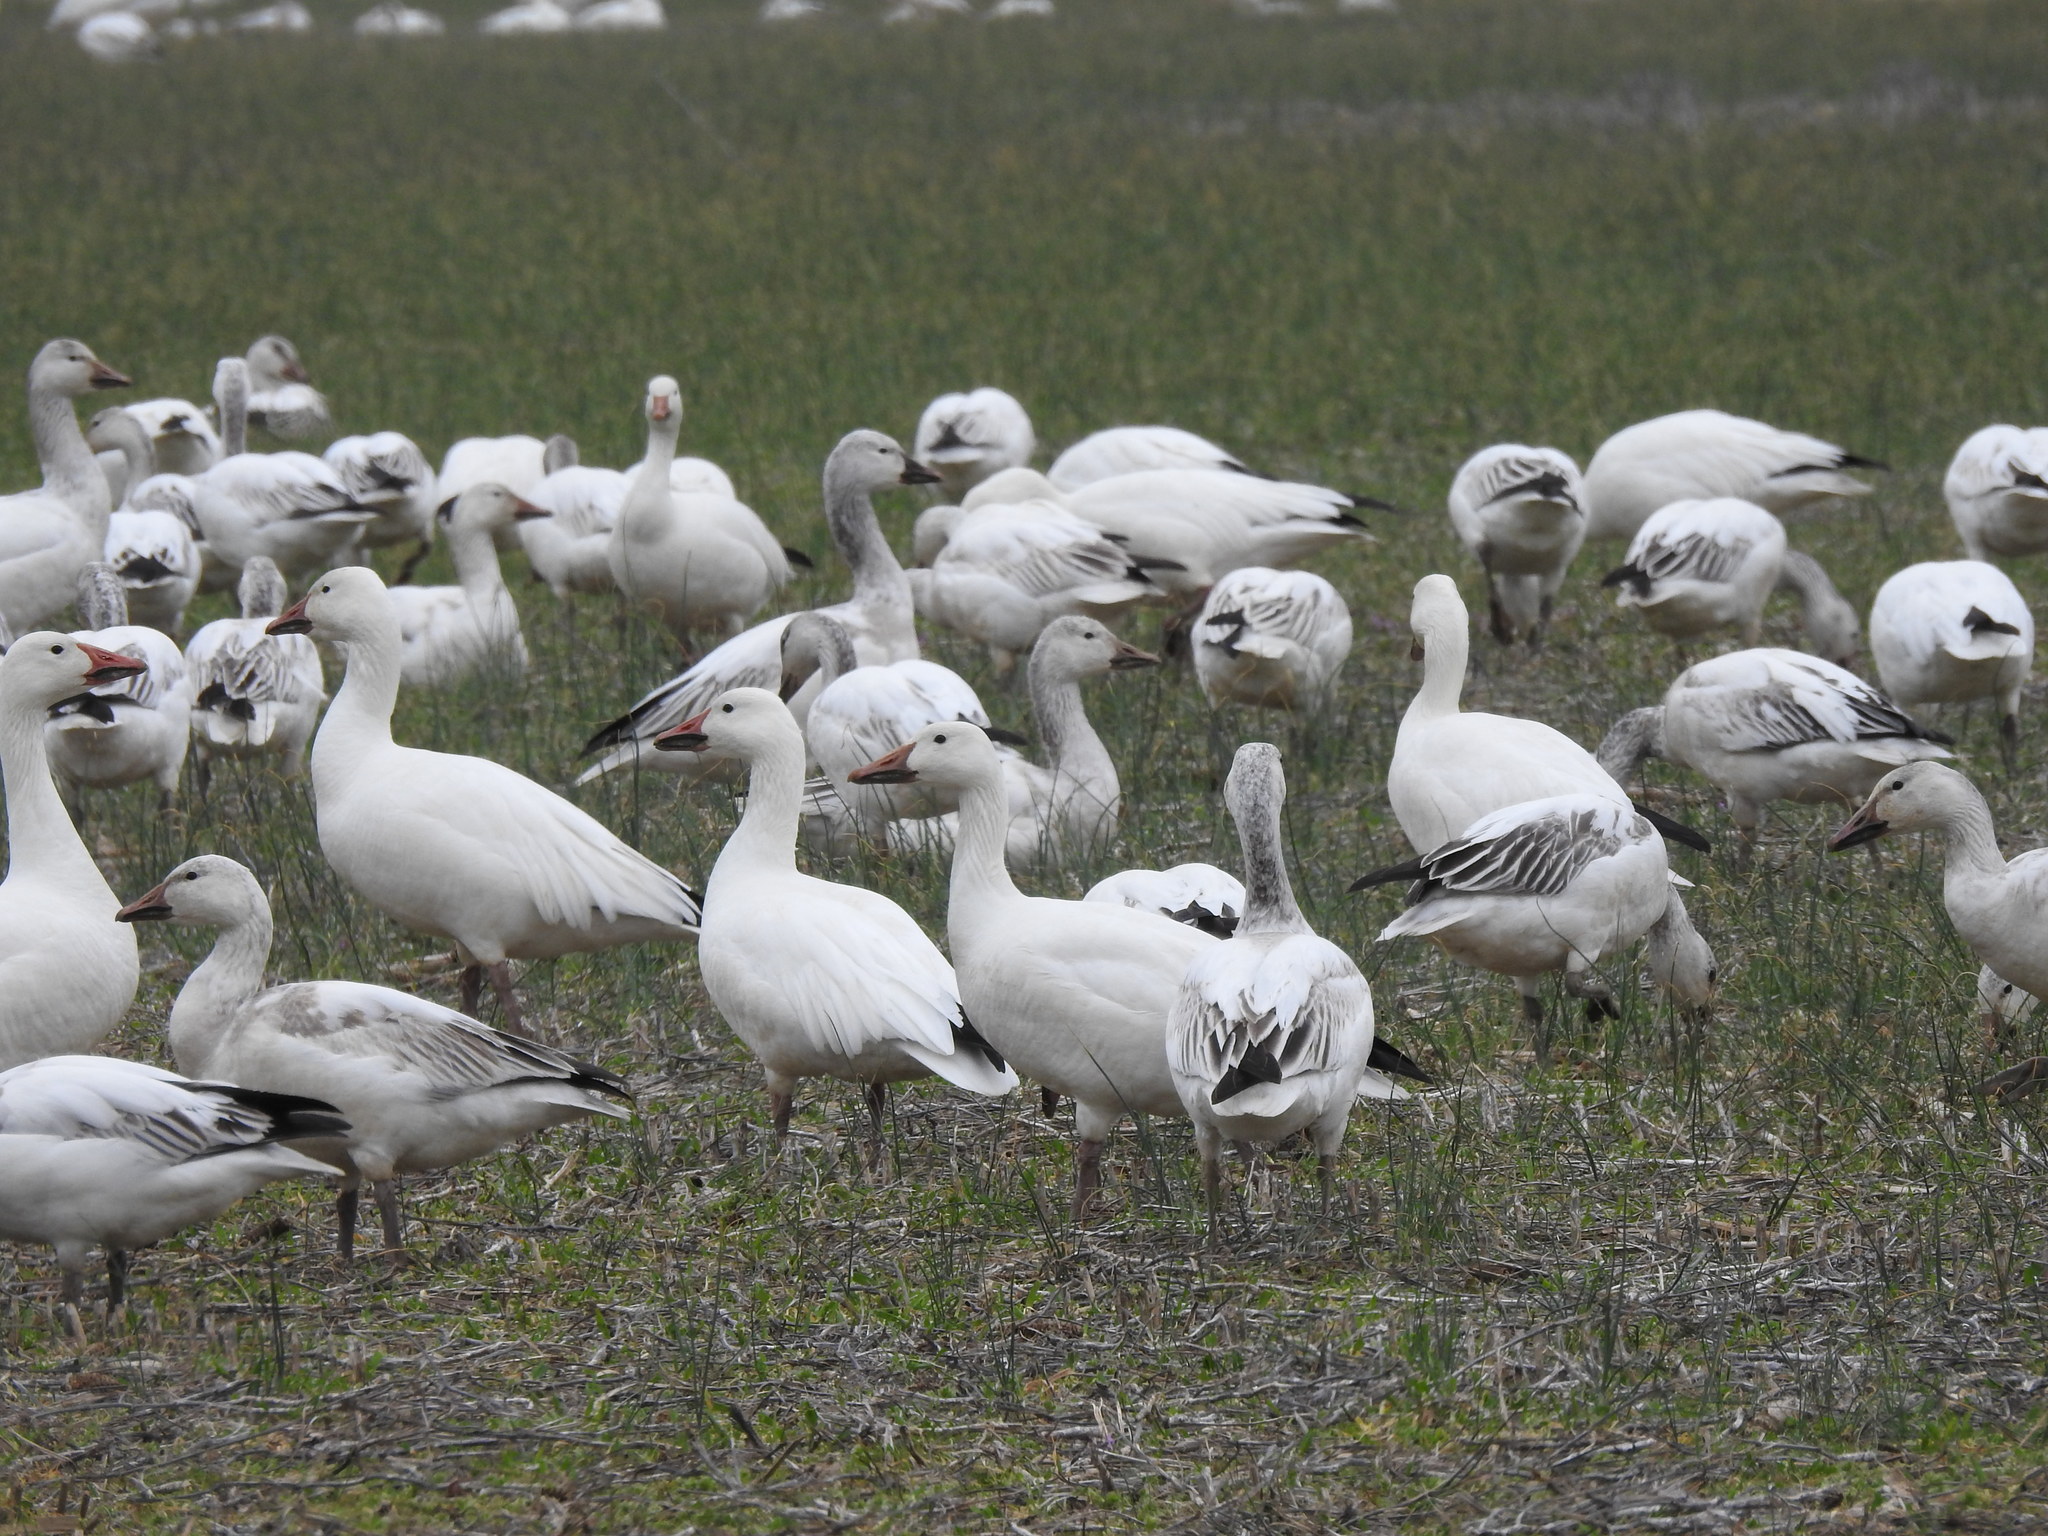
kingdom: Animalia
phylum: Chordata
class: Aves
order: Anseriformes
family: Anatidae
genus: Anser
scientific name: Anser caerulescens
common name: Snow goose
